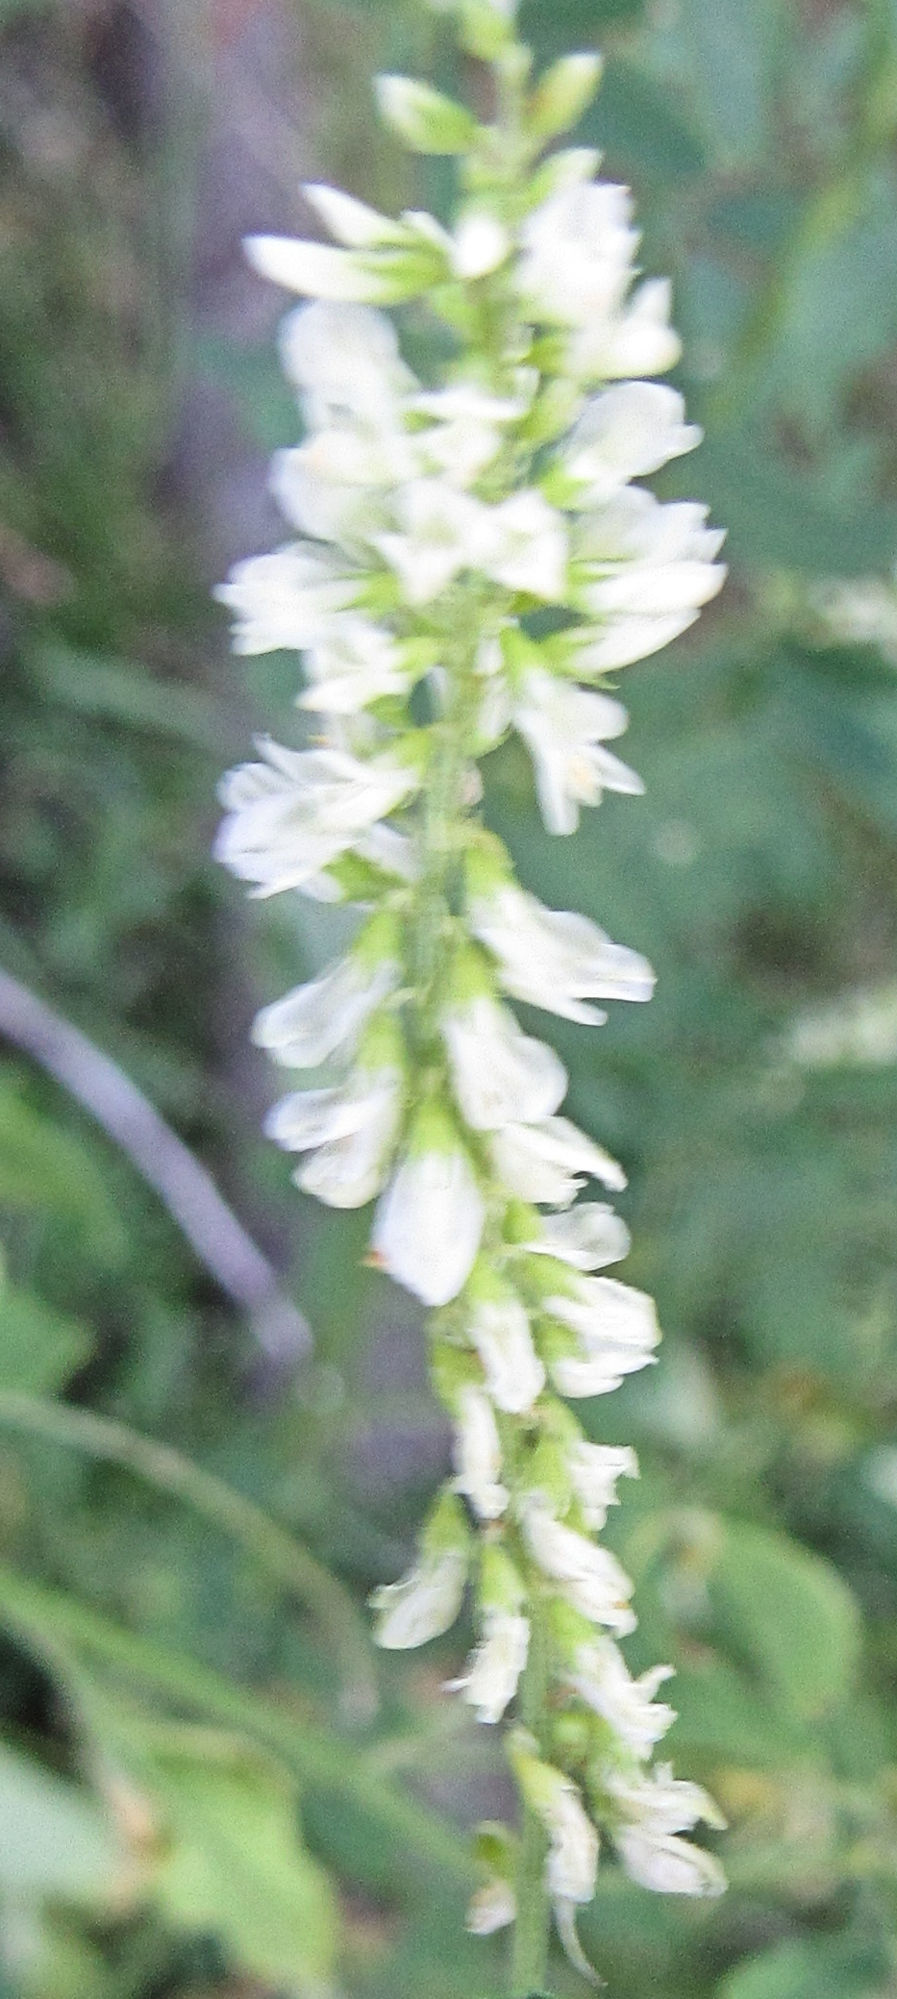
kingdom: Plantae
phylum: Tracheophyta
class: Magnoliopsida
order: Fabales
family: Fabaceae
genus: Melilotus
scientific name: Melilotus albus
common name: White melilot
